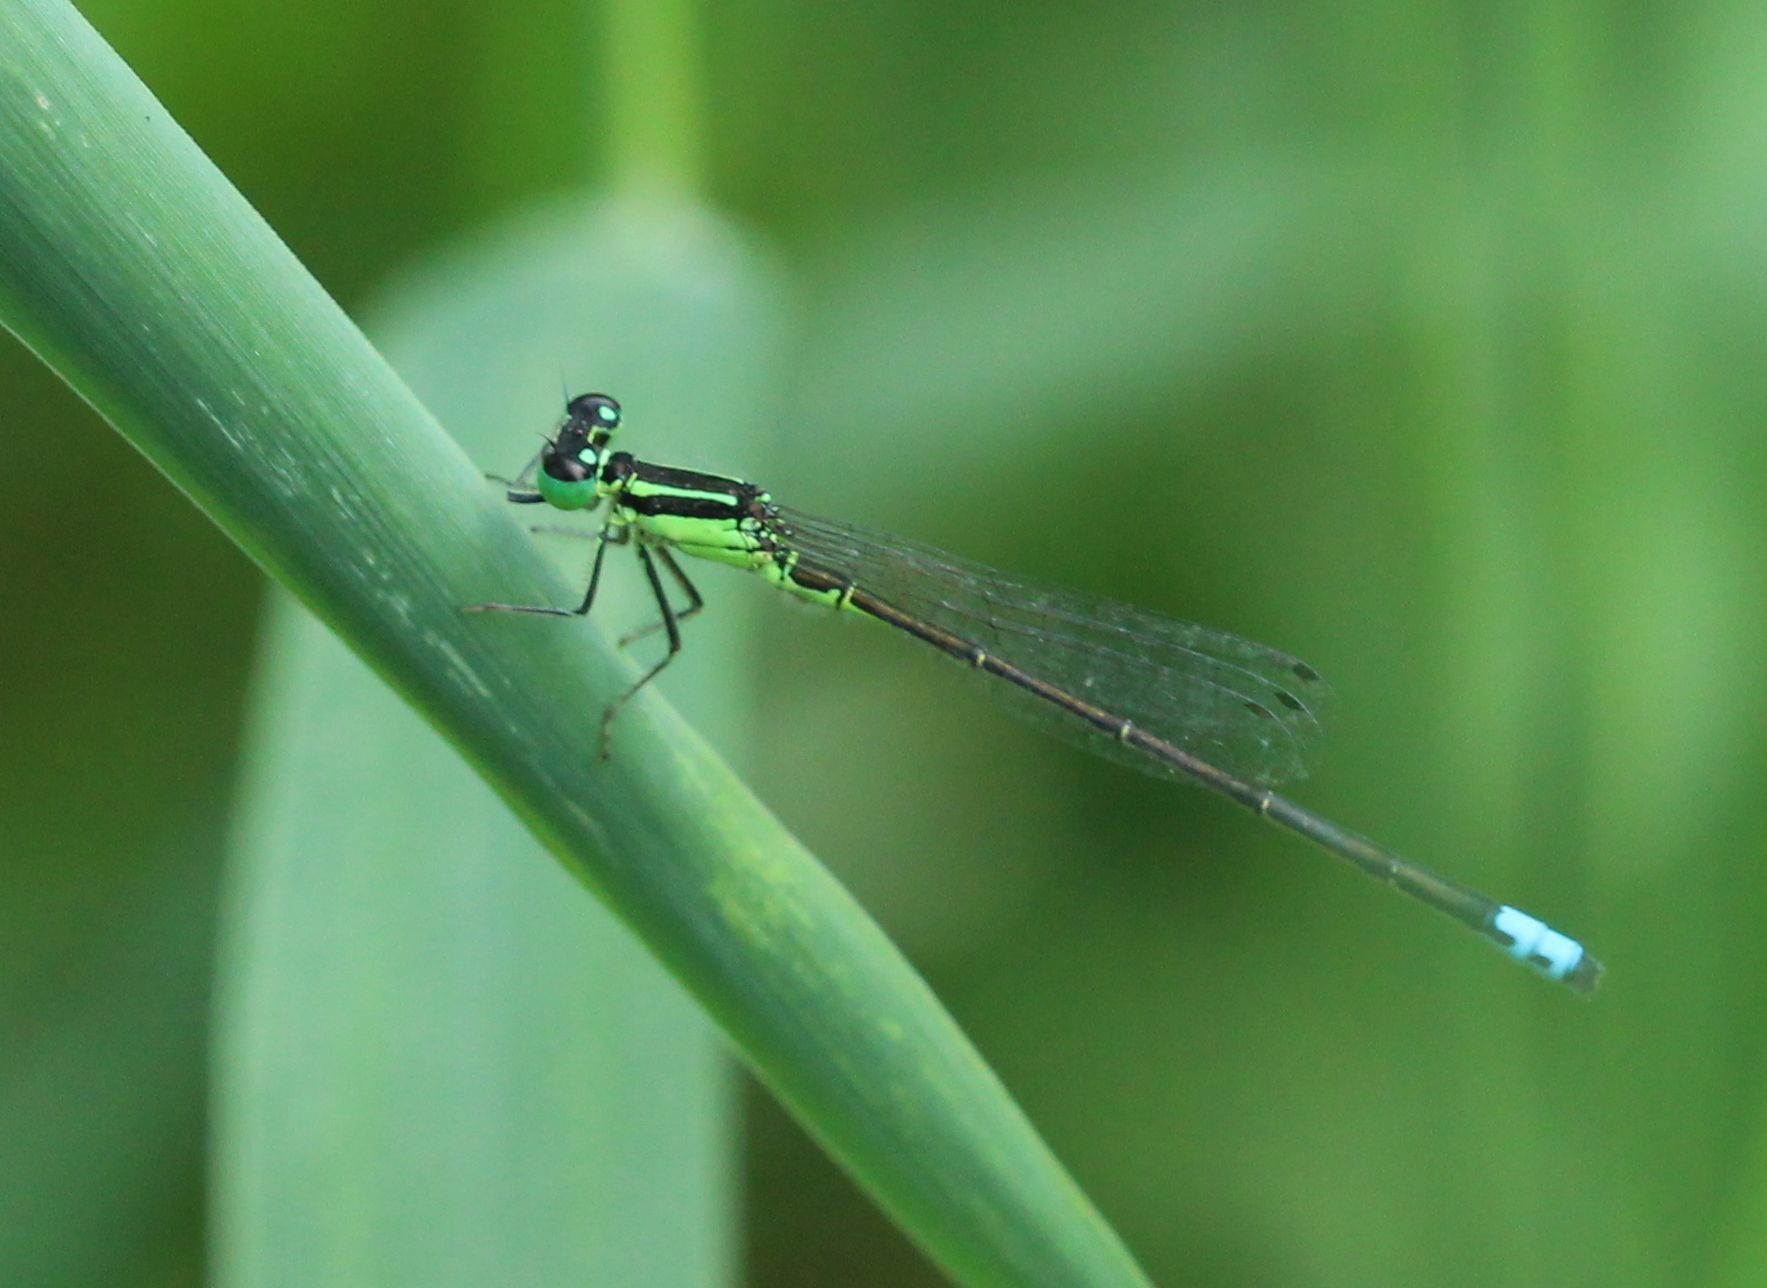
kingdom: Animalia
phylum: Arthropoda
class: Insecta
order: Odonata
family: Coenagrionidae
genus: Ischnura
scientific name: Ischnura verticalis
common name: Eastern forktail
